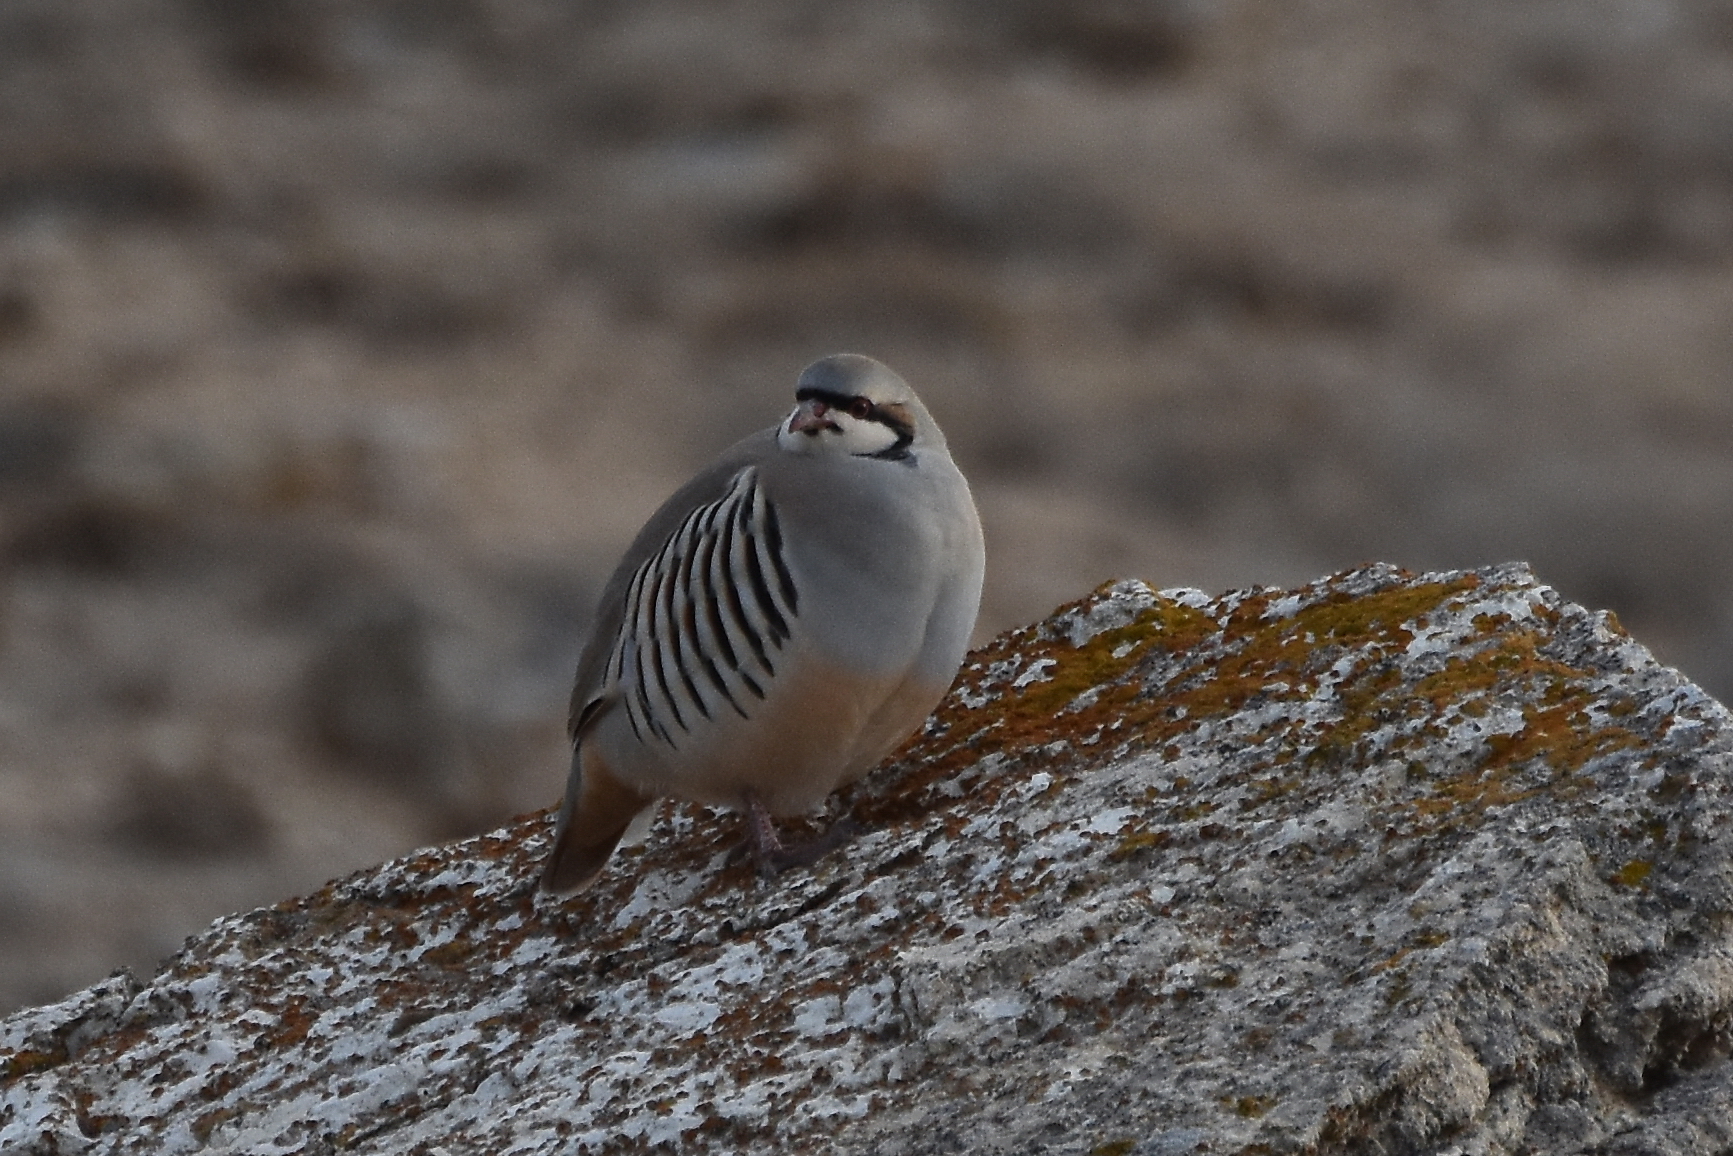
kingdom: Animalia
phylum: Chordata
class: Aves
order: Galliformes
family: Phasianidae
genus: Alectoris
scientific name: Alectoris chukar
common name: Chukar
